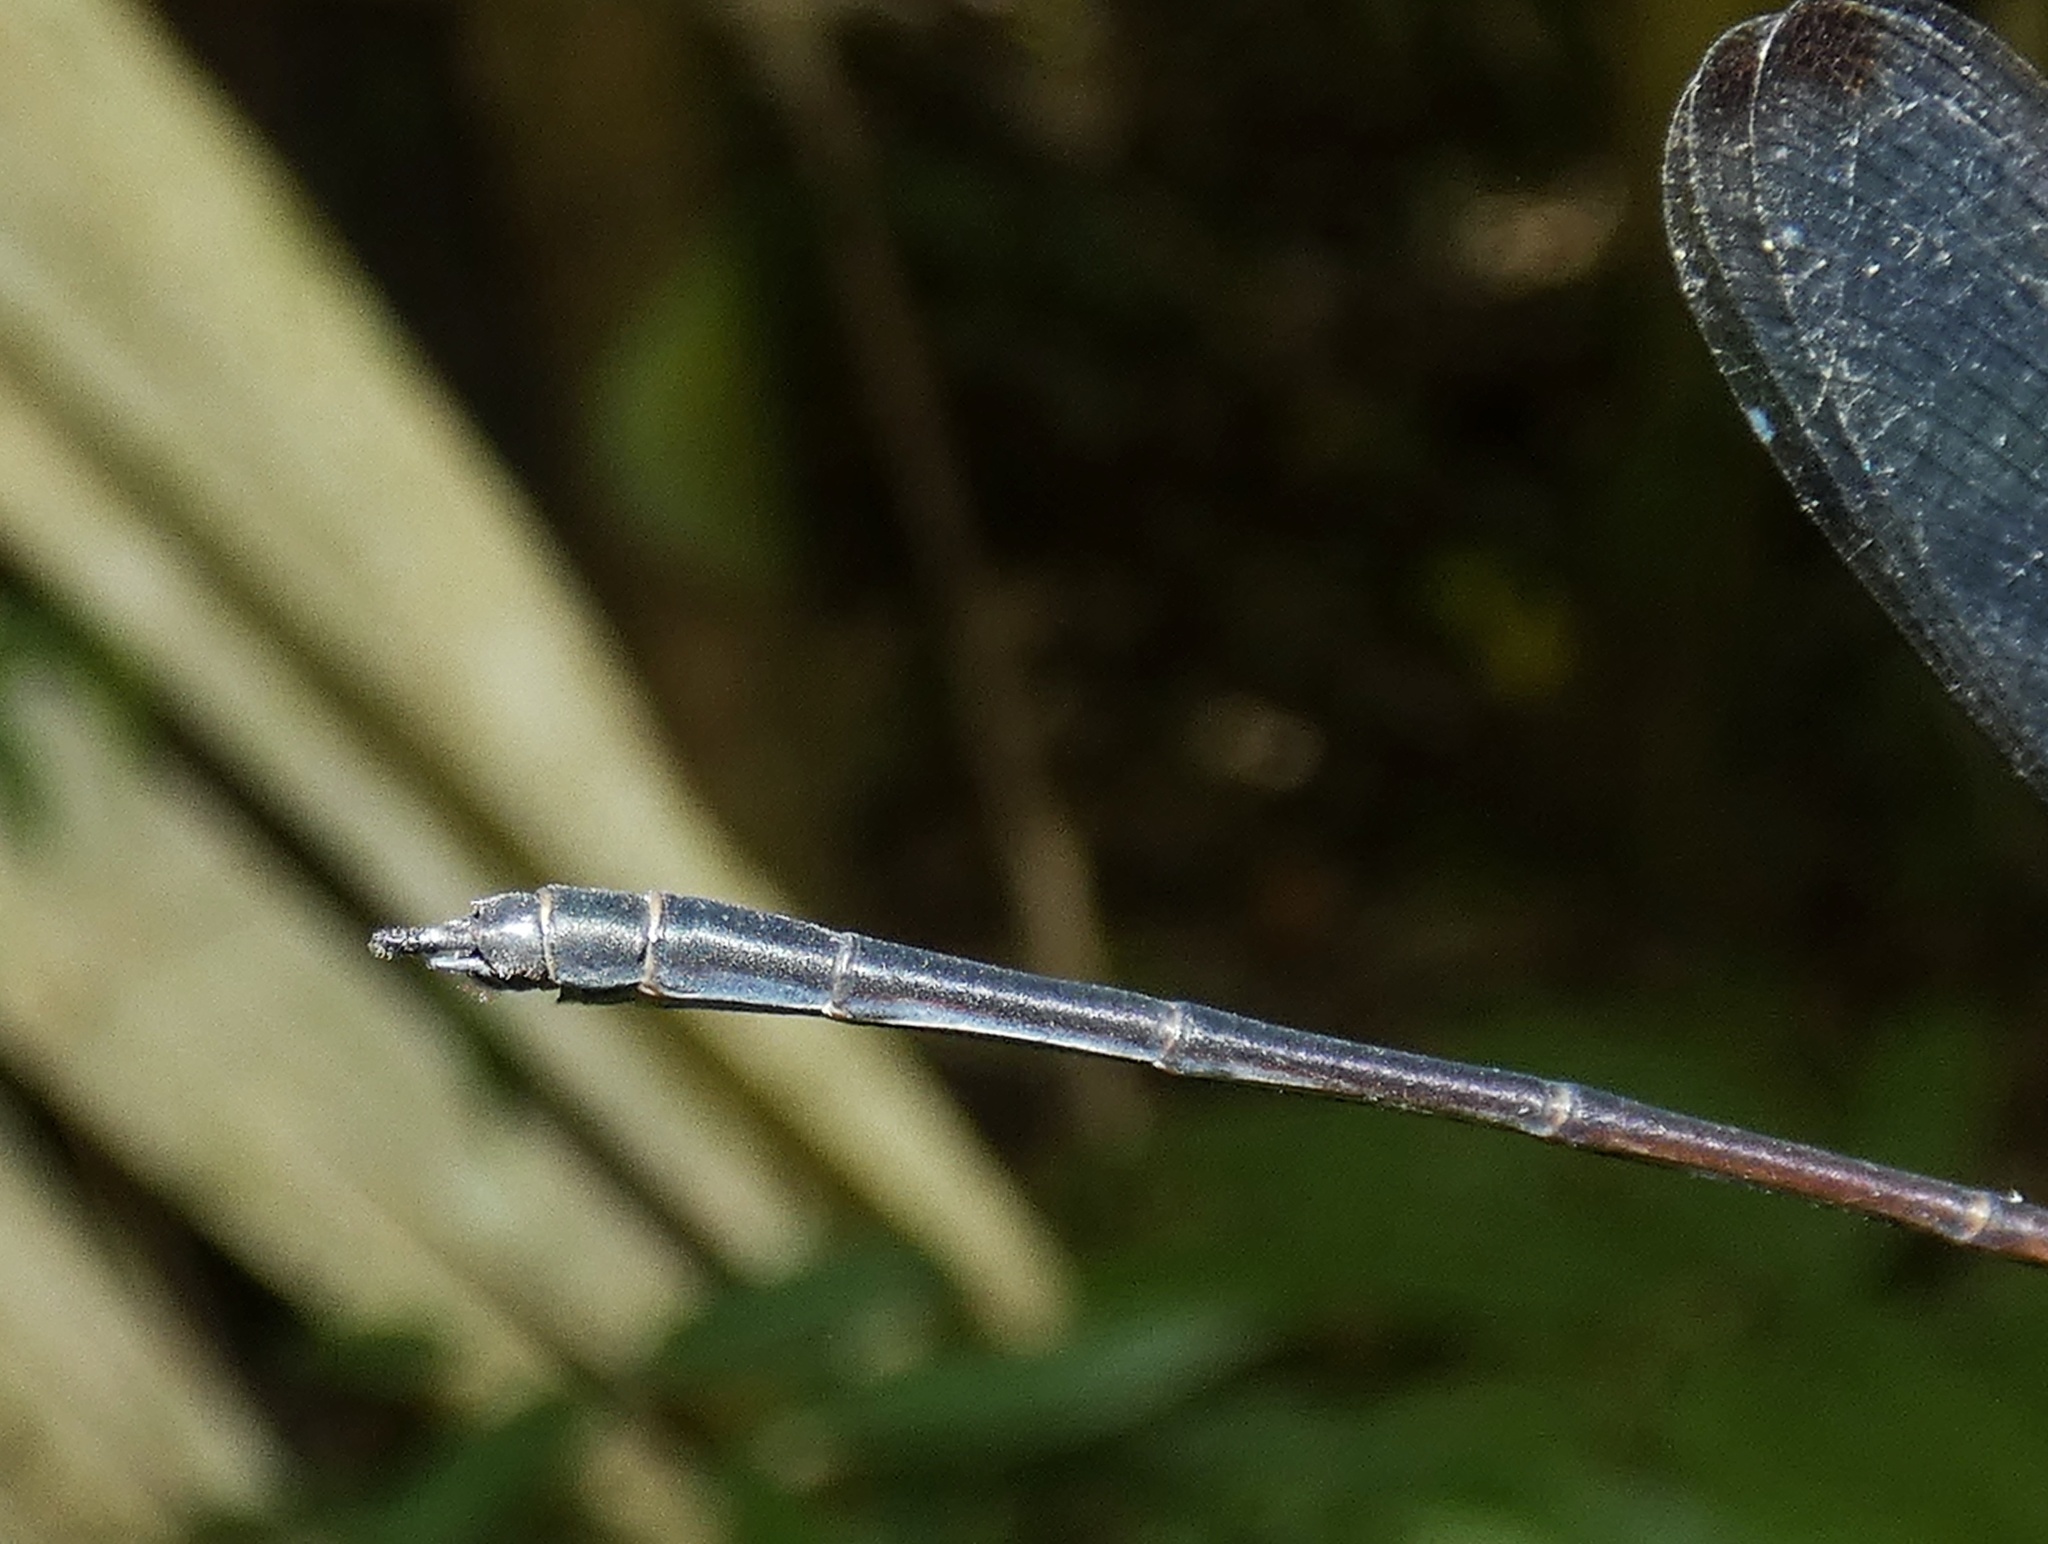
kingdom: Animalia
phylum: Arthropoda
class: Insecta
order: Odonata
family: Calopterygidae
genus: Hetaerina
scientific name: Hetaerina caja
